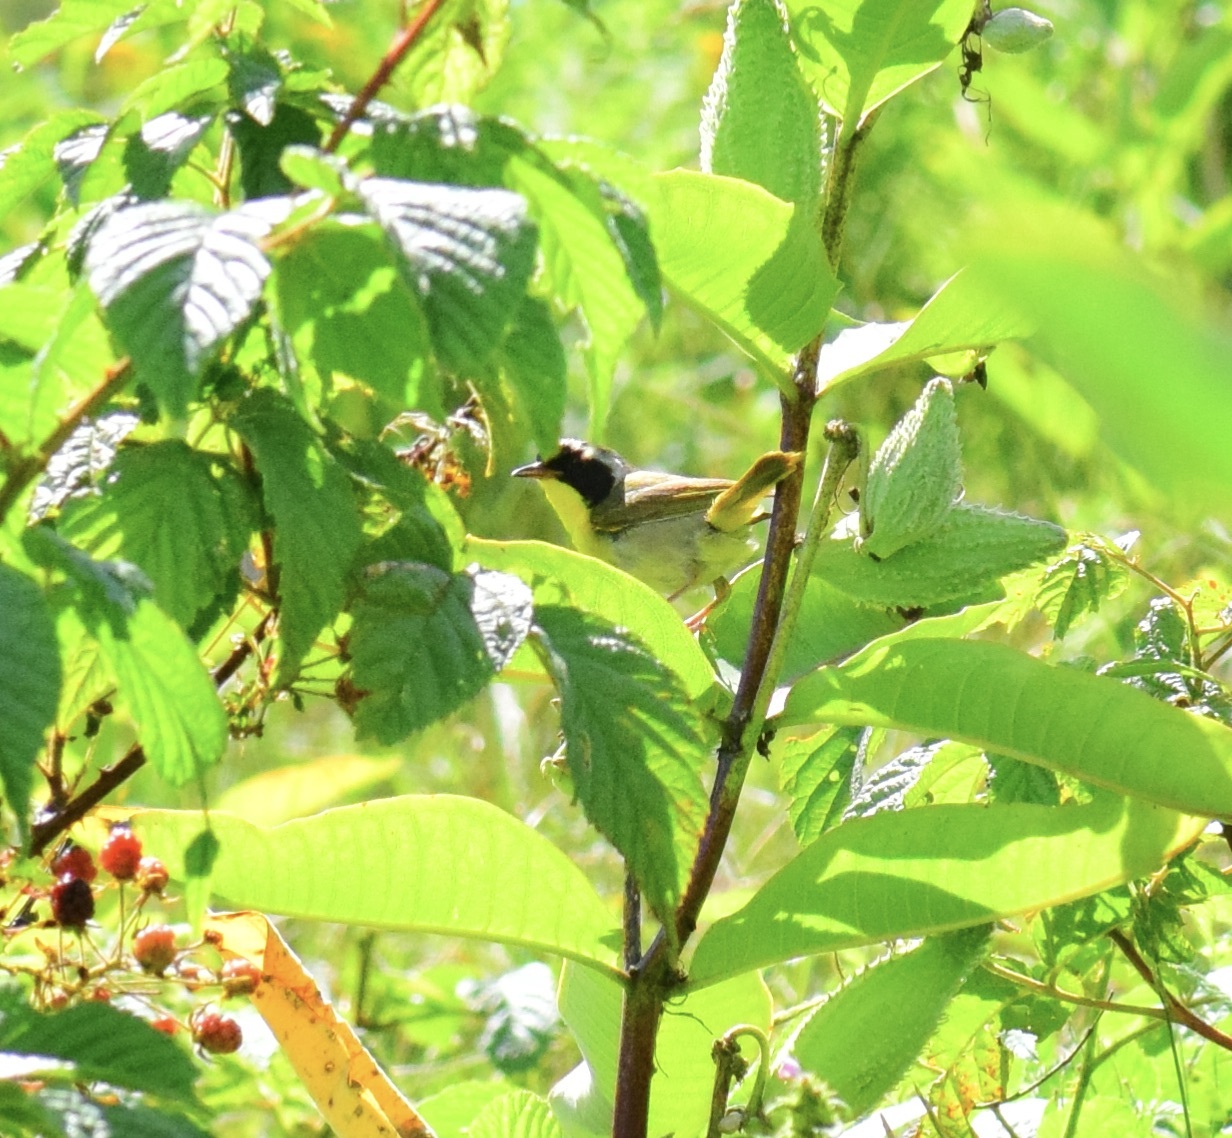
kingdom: Animalia
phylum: Chordata
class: Aves
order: Passeriformes
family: Parulidae
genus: Geothlypis
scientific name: Geothlypis trichas
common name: Common yellowthroat
